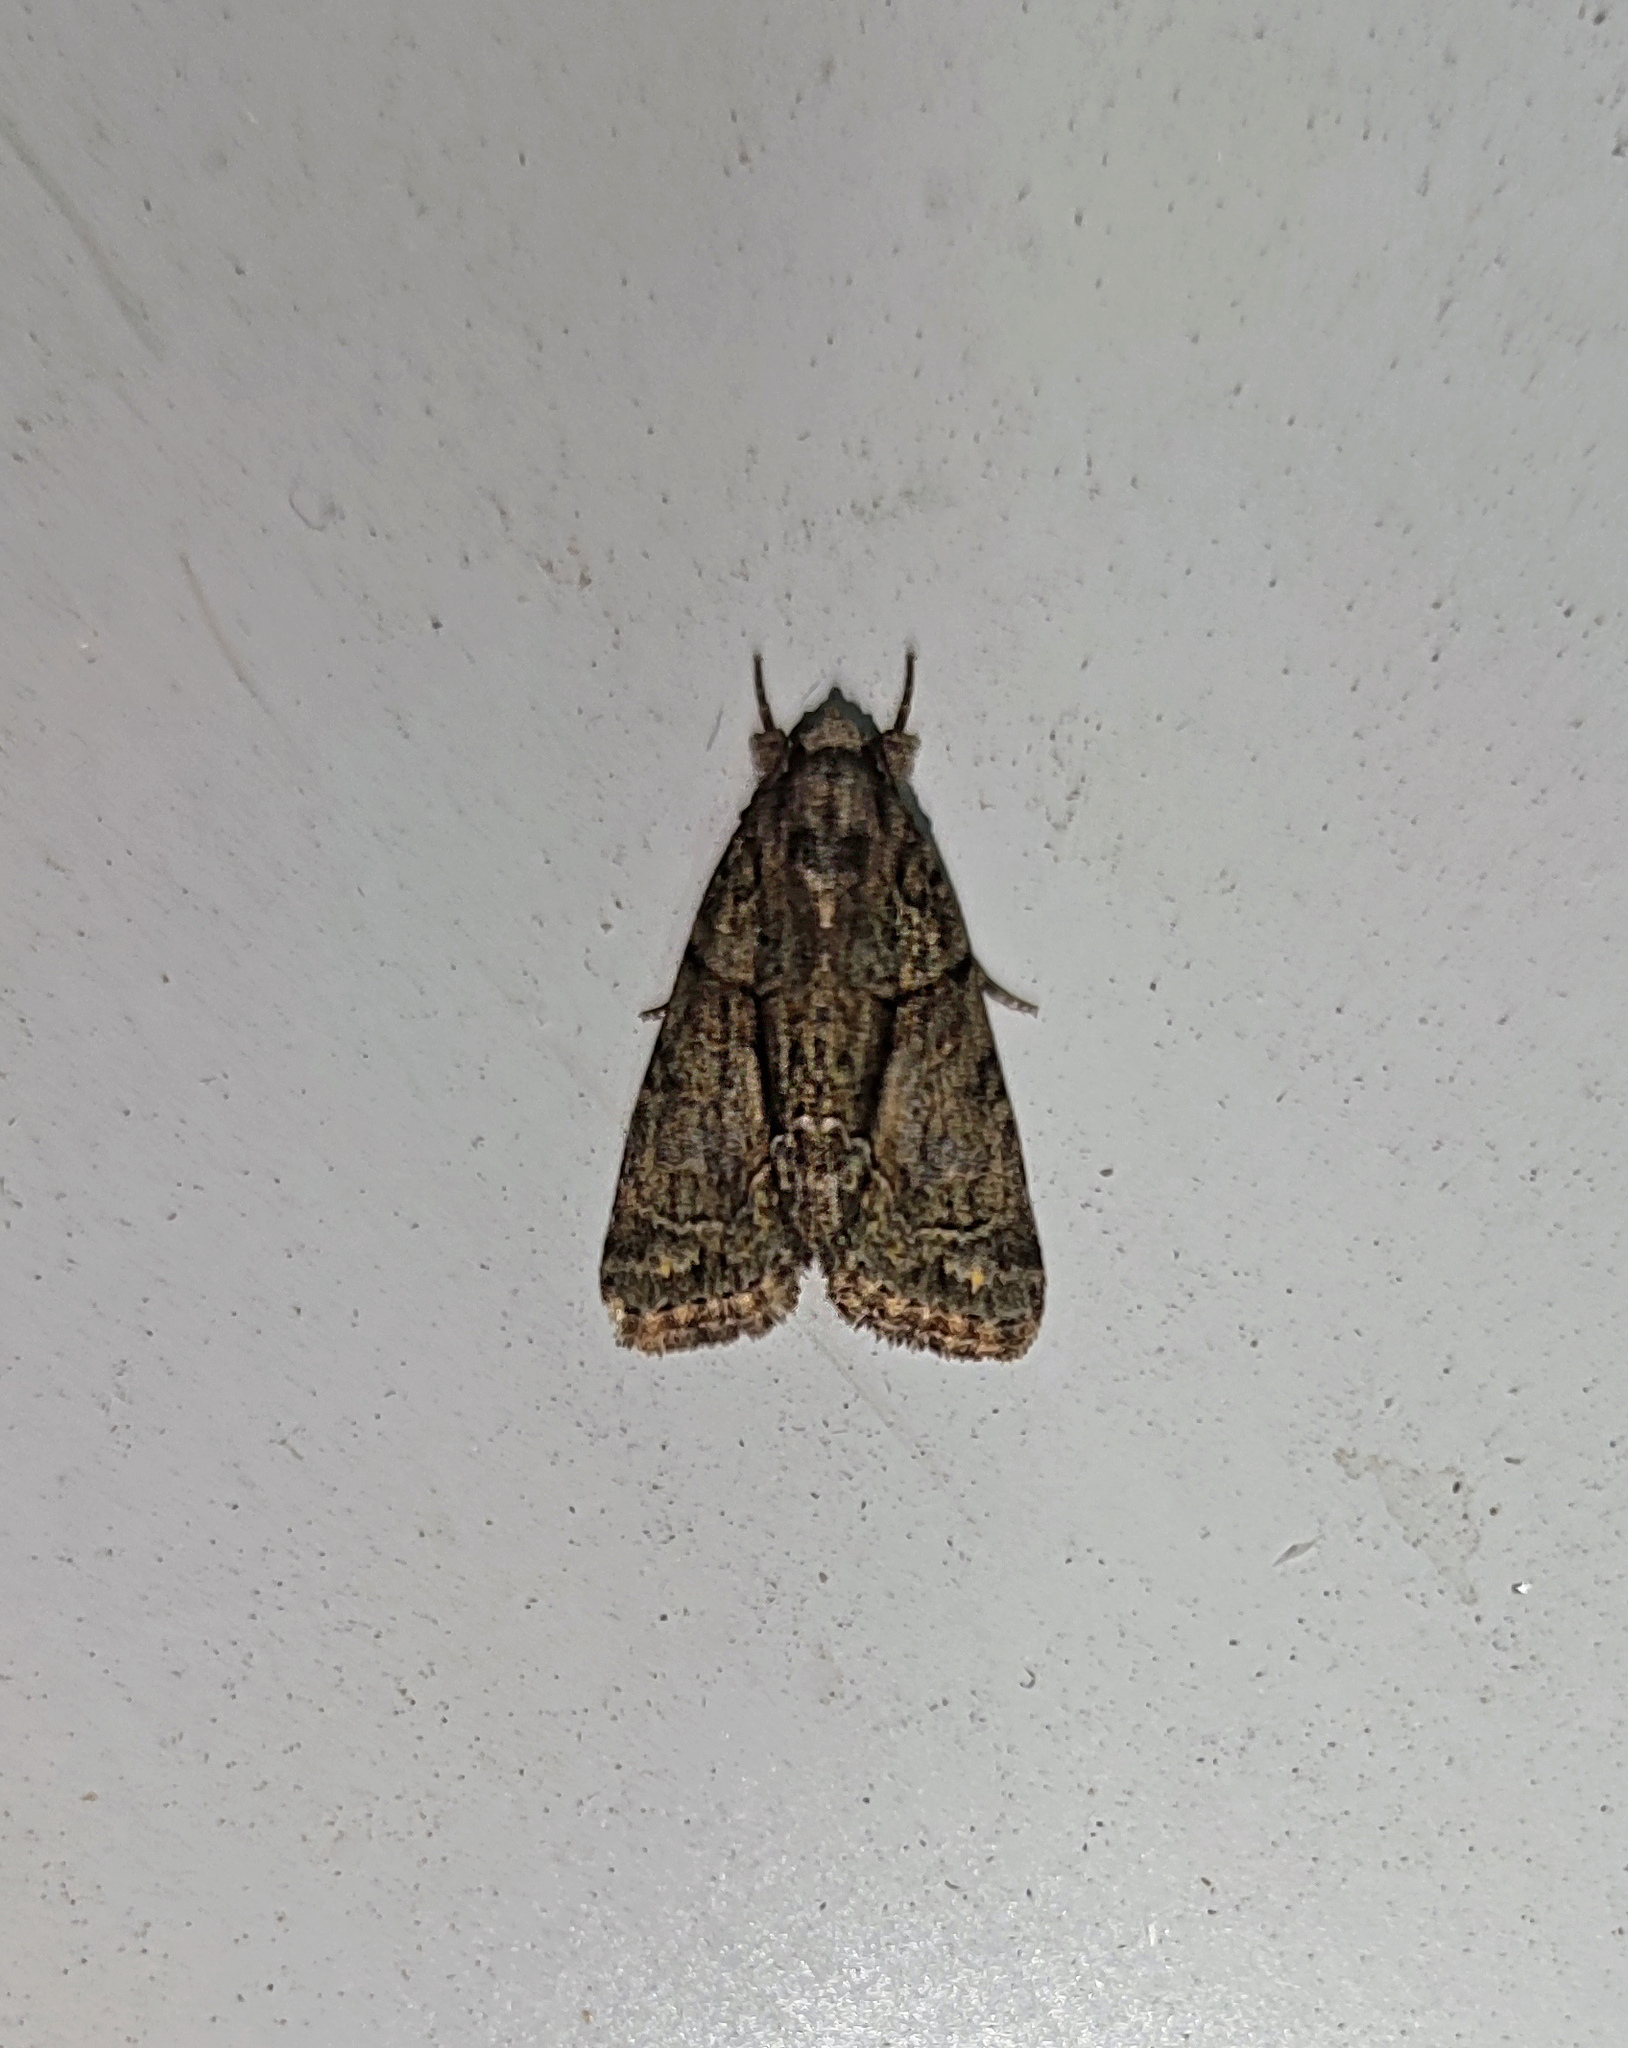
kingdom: Animalia
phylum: Arthropoda
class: Insecta
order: Lepidoptera
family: Noctuidae
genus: Cryphia
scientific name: Cryphia fraudatricula
